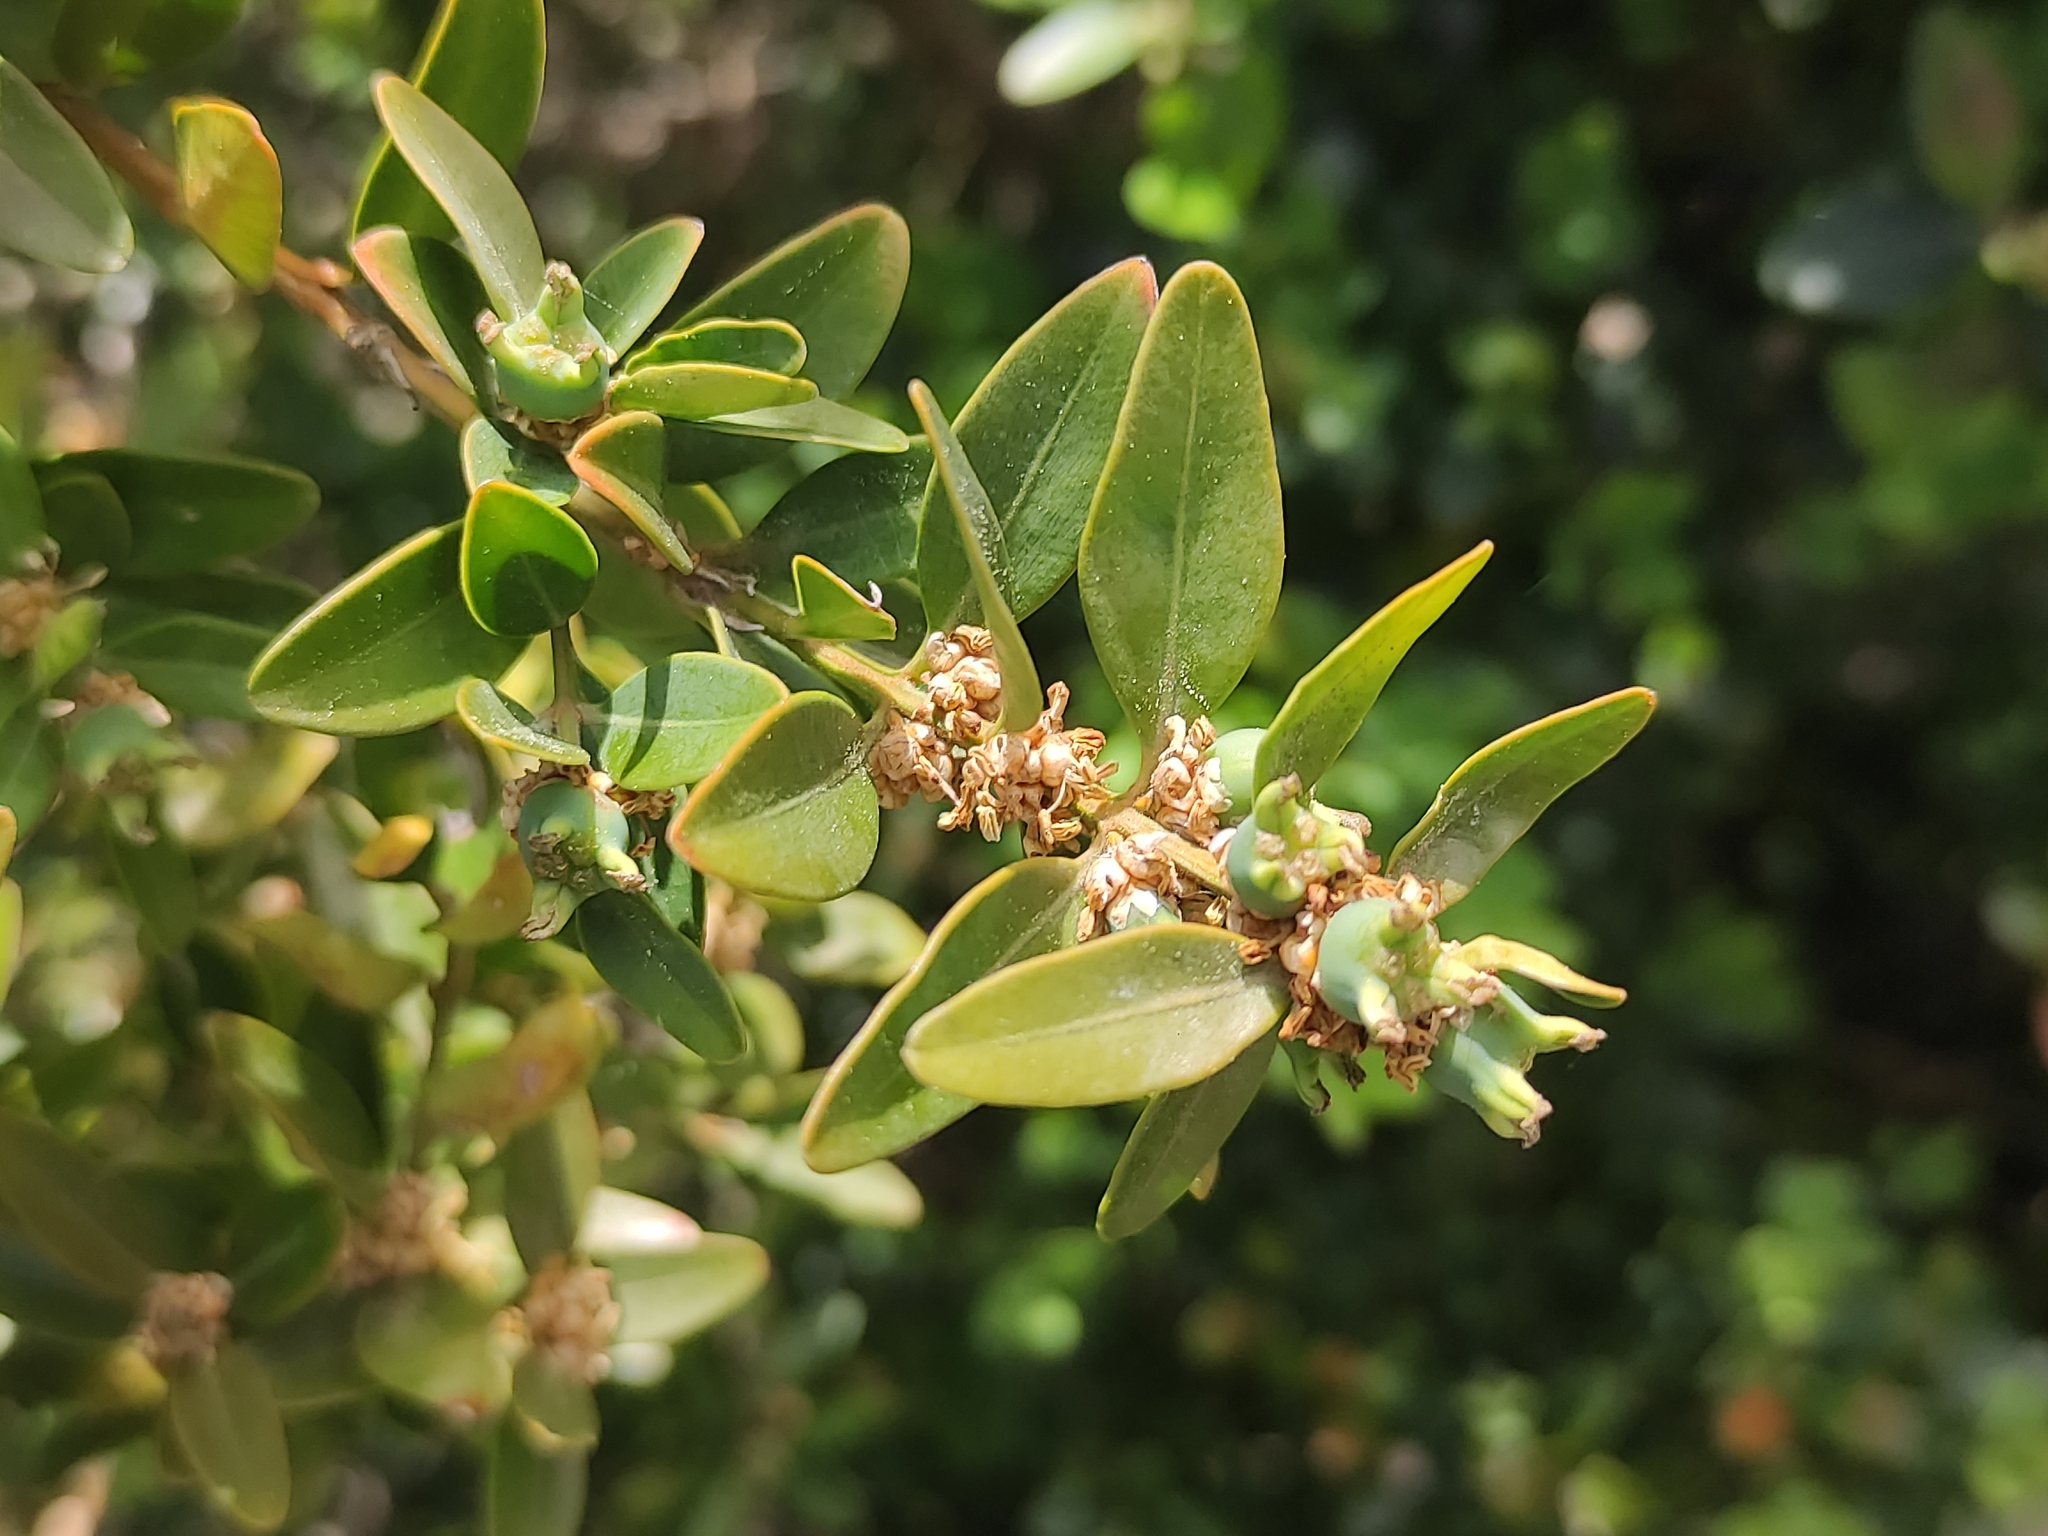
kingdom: Plantae
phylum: Tracheophyta
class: Magnoliopsida
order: Buxales
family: Buxaceae
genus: Buxus
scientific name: Buxus sempervirens
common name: Box
